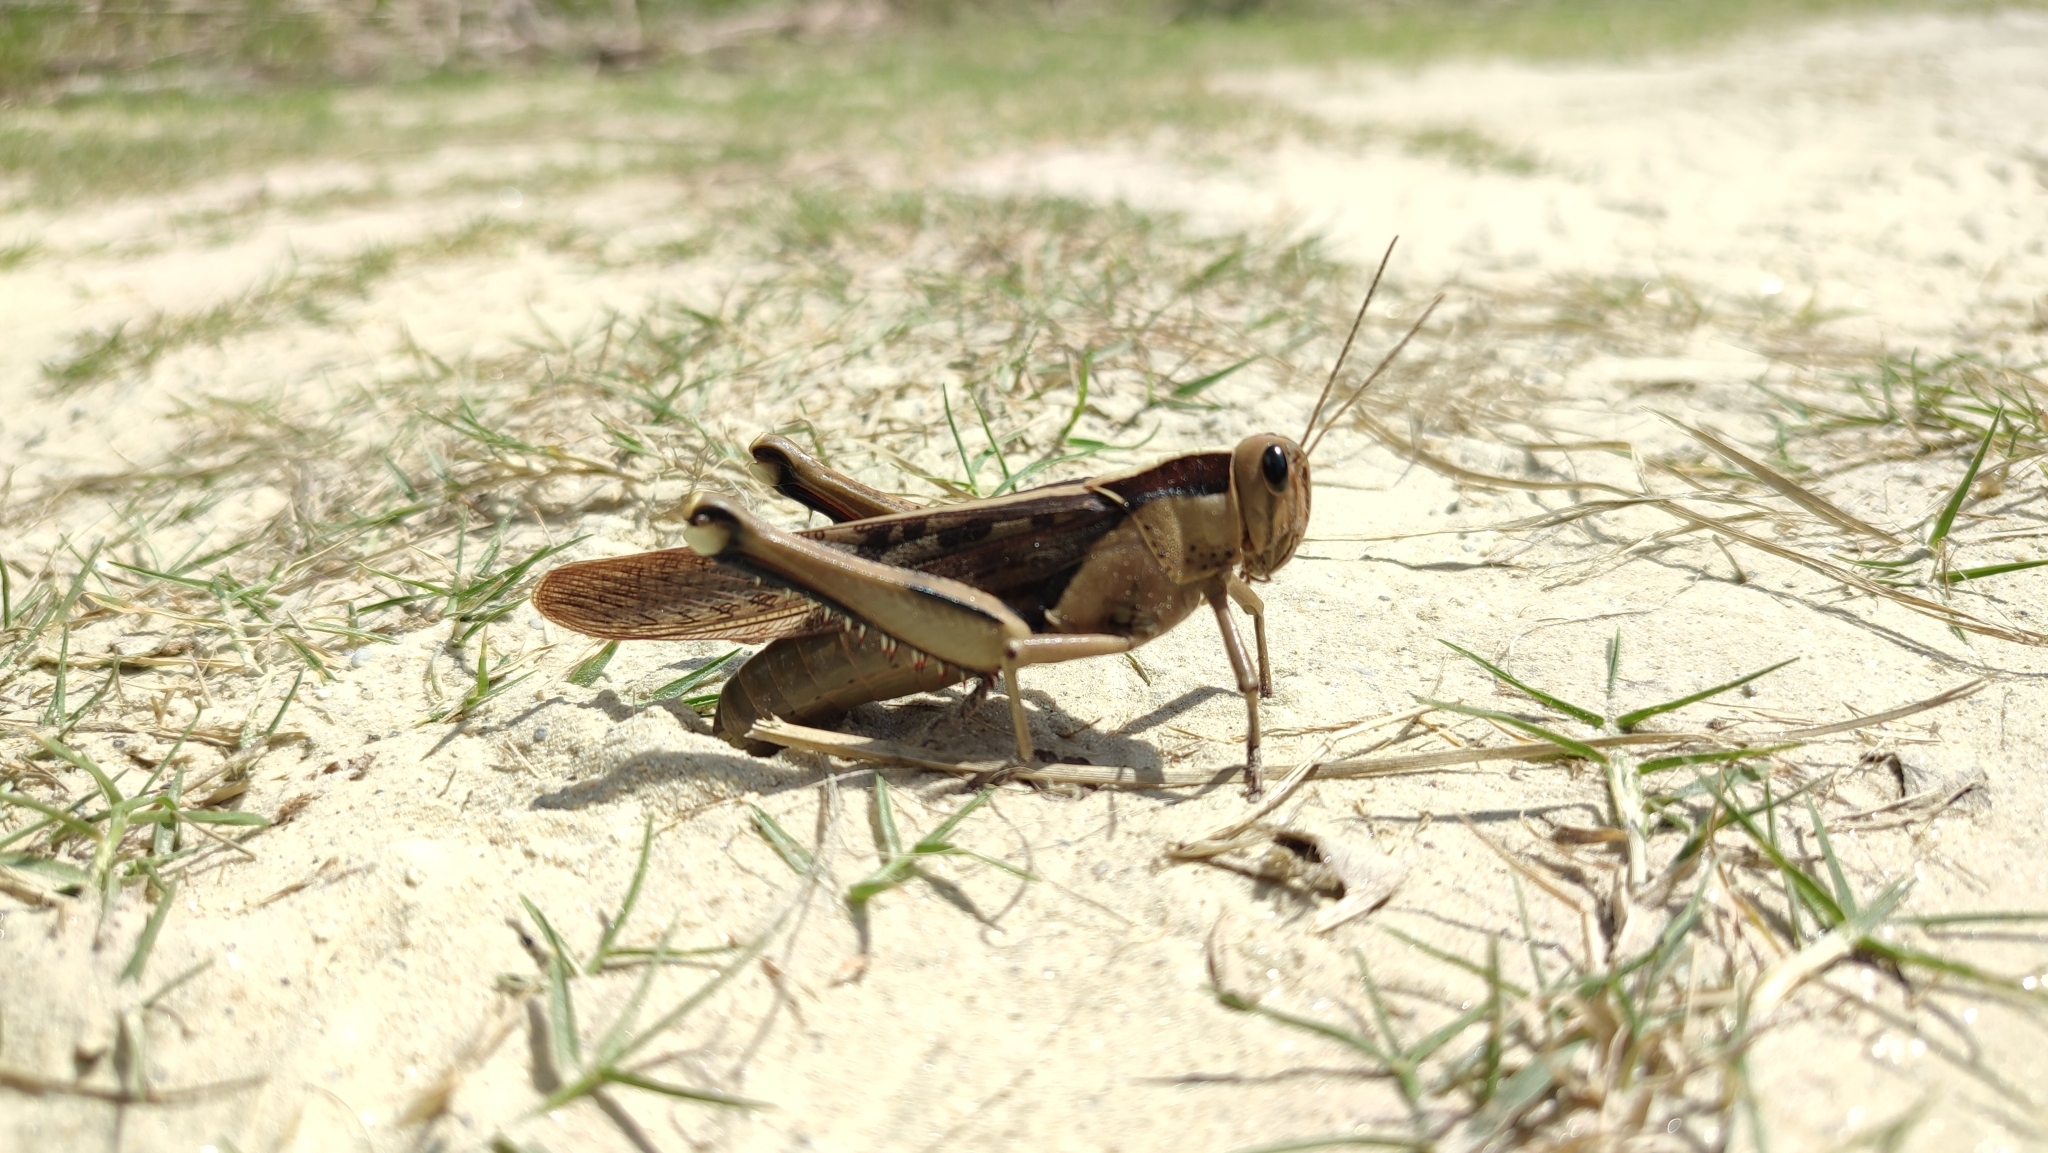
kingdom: Animalia
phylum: Arthropoda
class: Insecta
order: Orthoptera
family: Acrididae
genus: Acanthacris
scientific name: Acanthacris ruficornis
